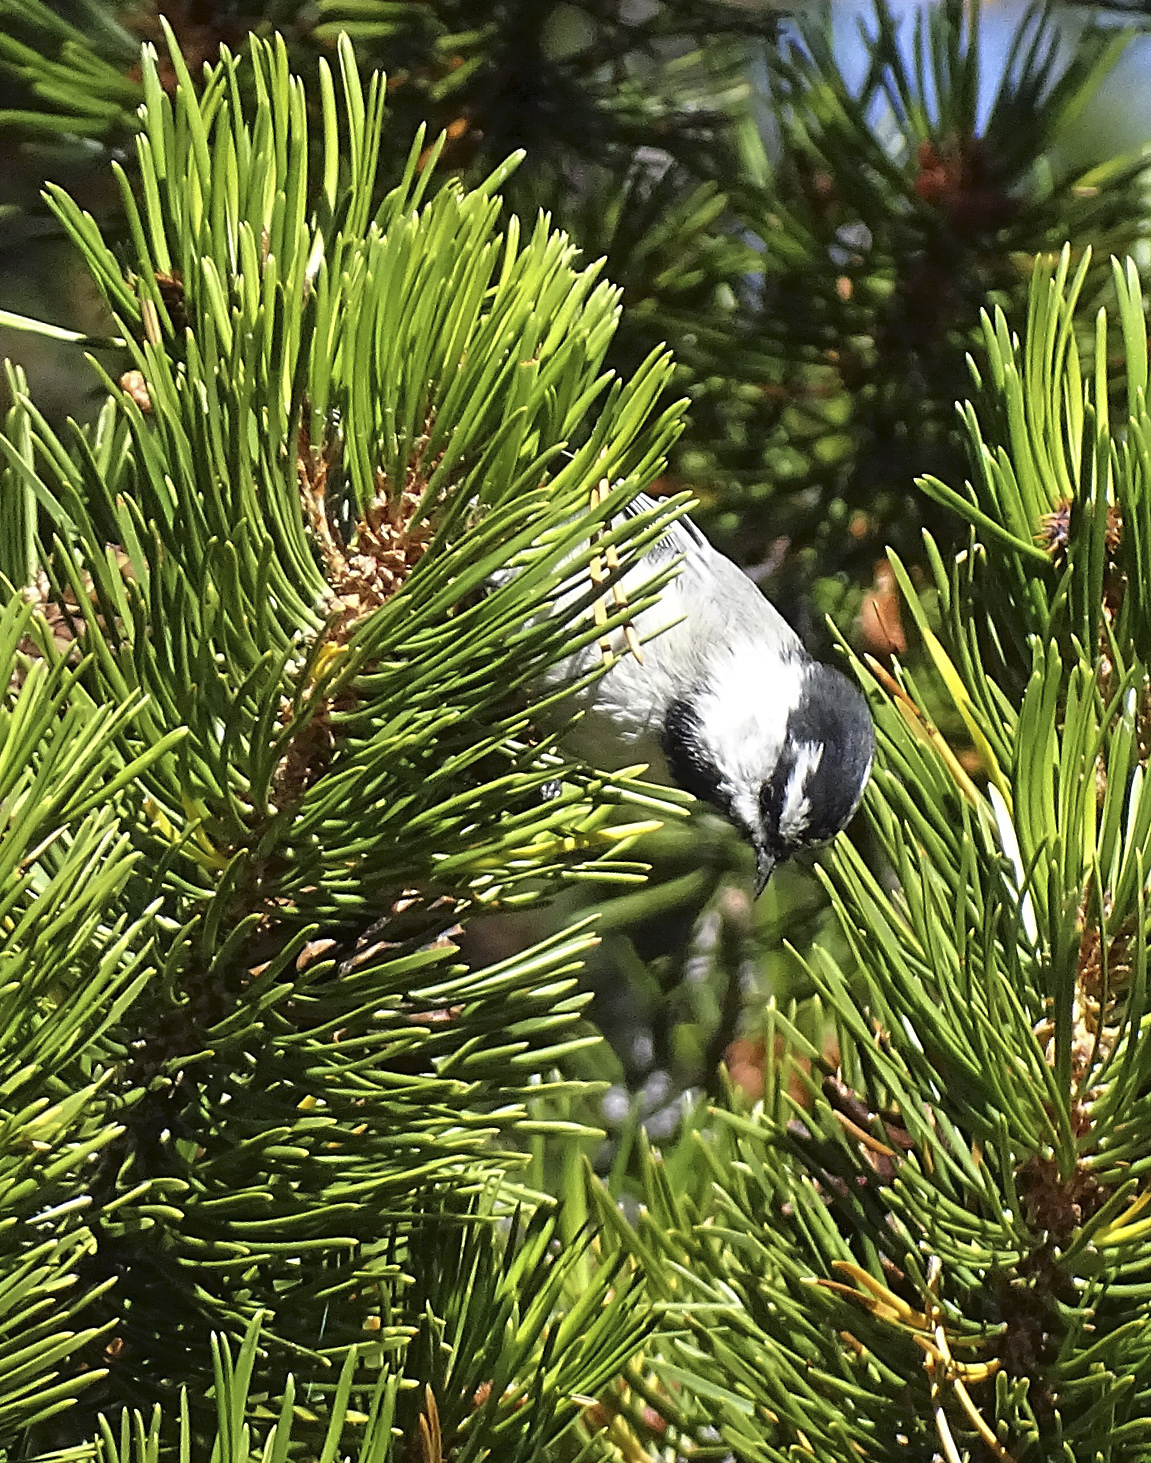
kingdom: Animalia
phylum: Chordata
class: Aves
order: Passeriformes
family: Paridae
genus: Poecile
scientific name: Poecile gambeli
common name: Mountain chickadee
